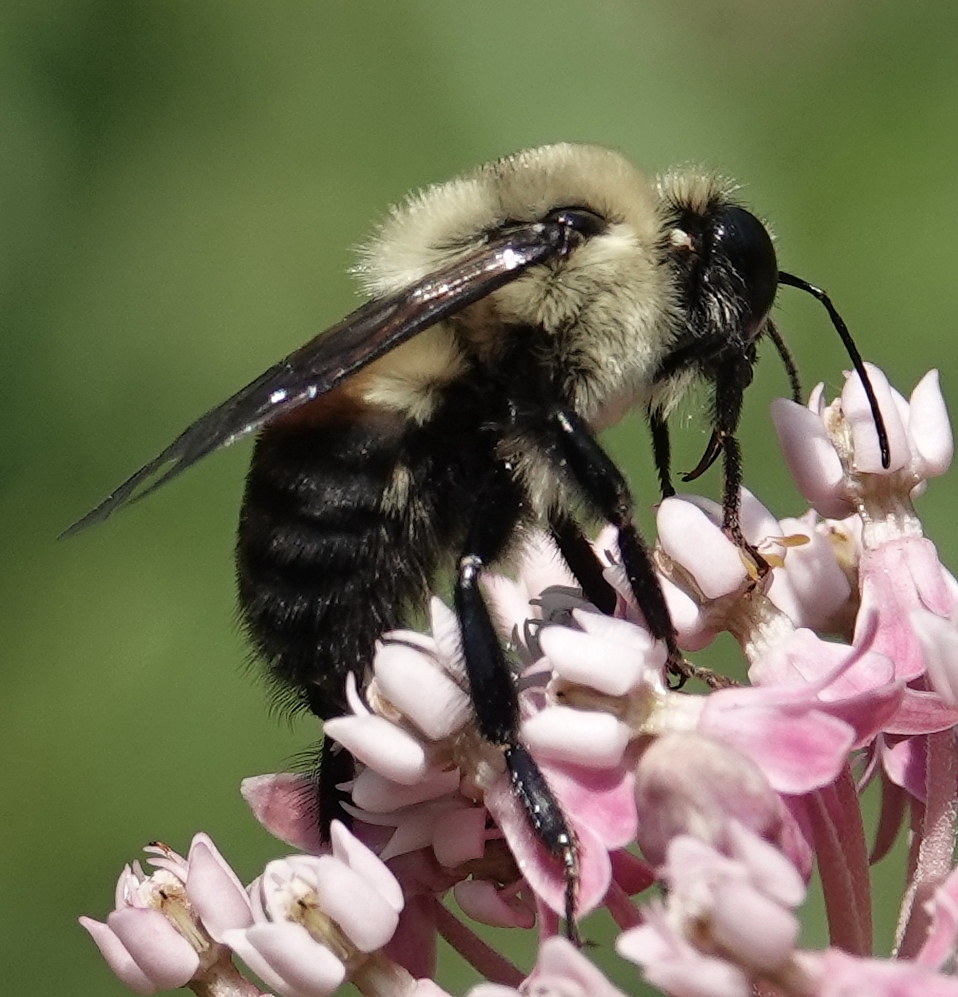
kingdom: Animalia
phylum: Arthropoda
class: Insecta
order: Hymenoptera
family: Apidae
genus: Bombus
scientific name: Bombus griseocollis
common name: Brown-belted bumble bee
